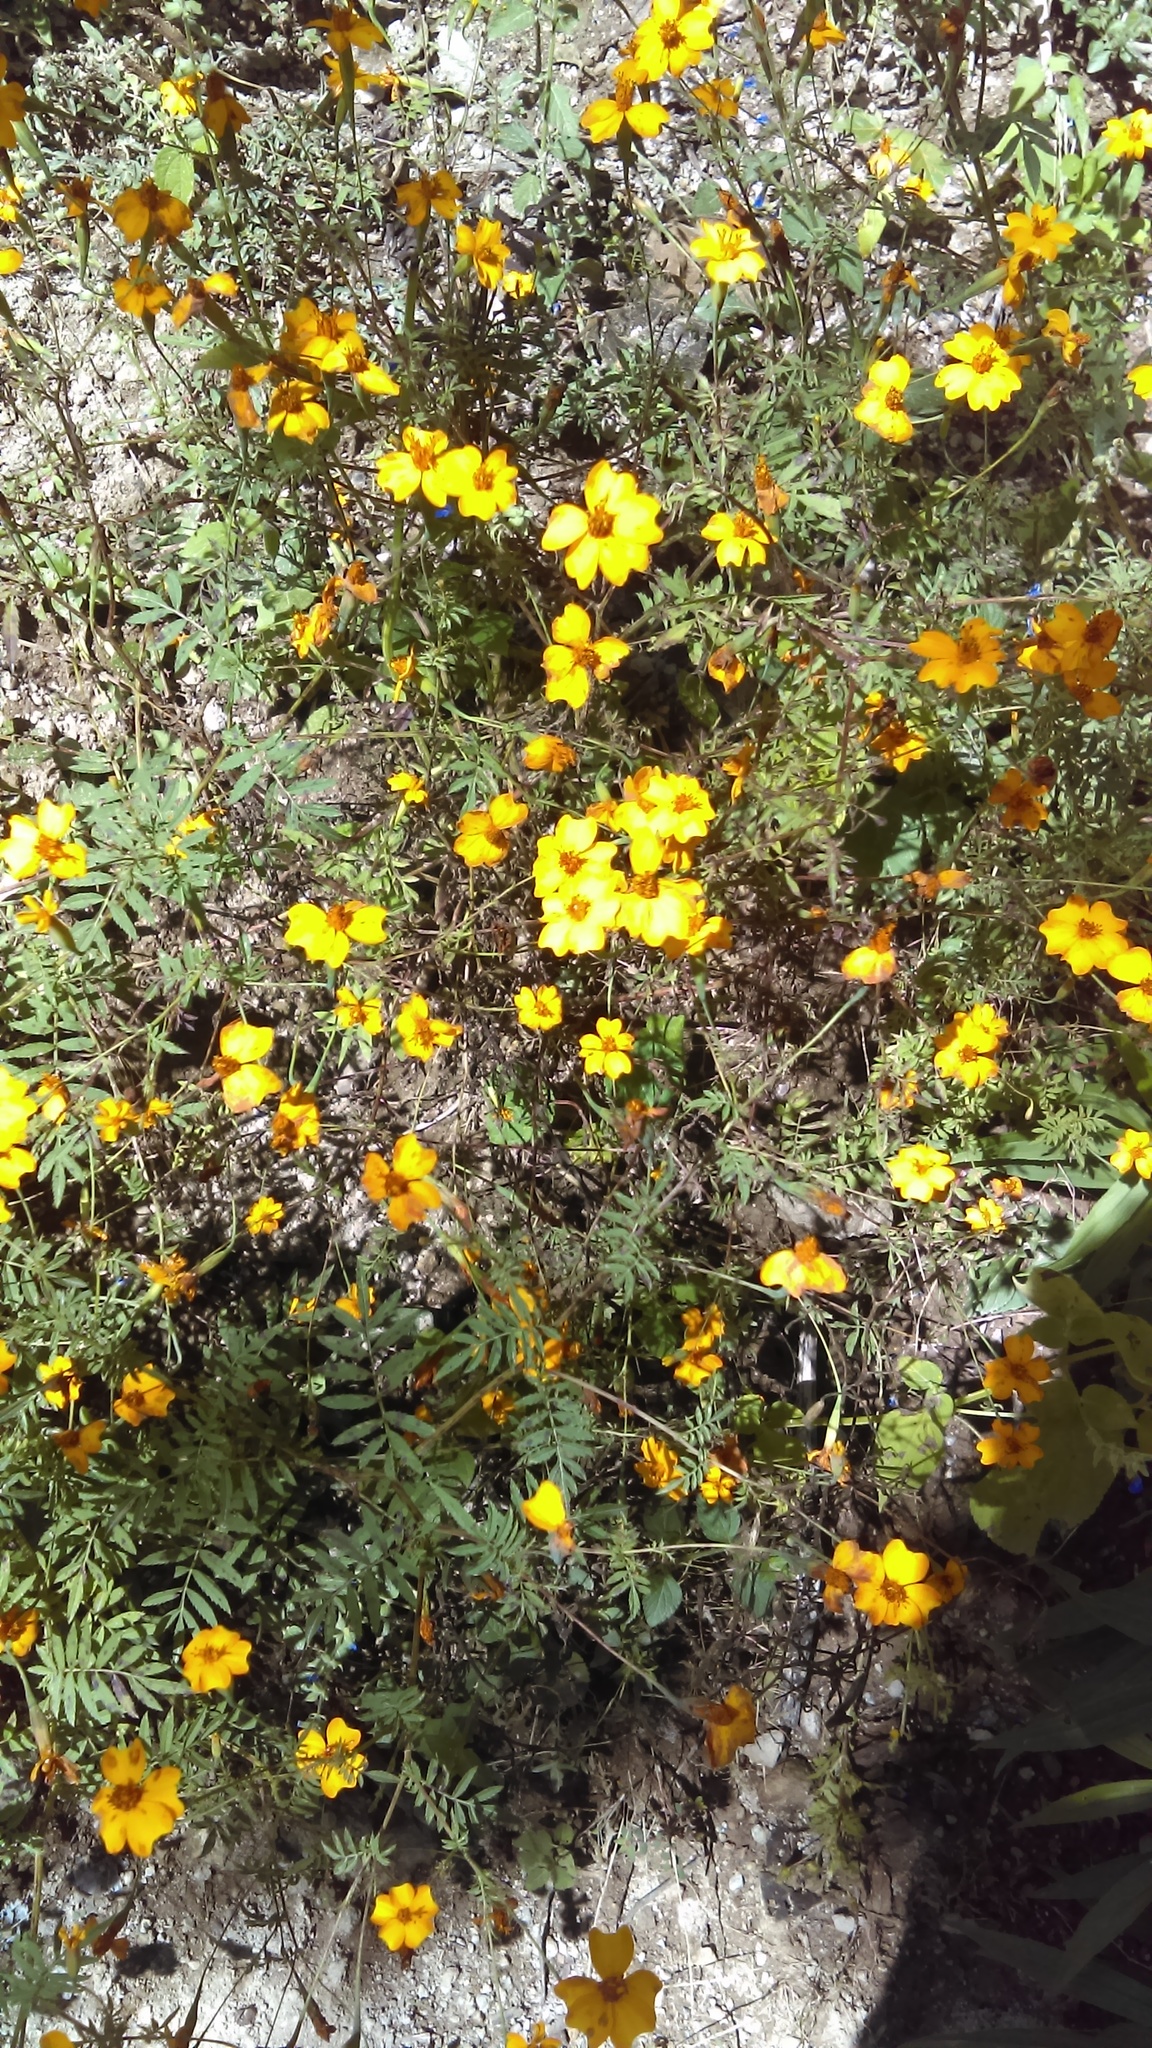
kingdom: Plantae
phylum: Tracheophyta
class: Magnoliopsida
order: Asterales
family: Asteraceae
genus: Tagetes
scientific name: Tagetes lunulata
